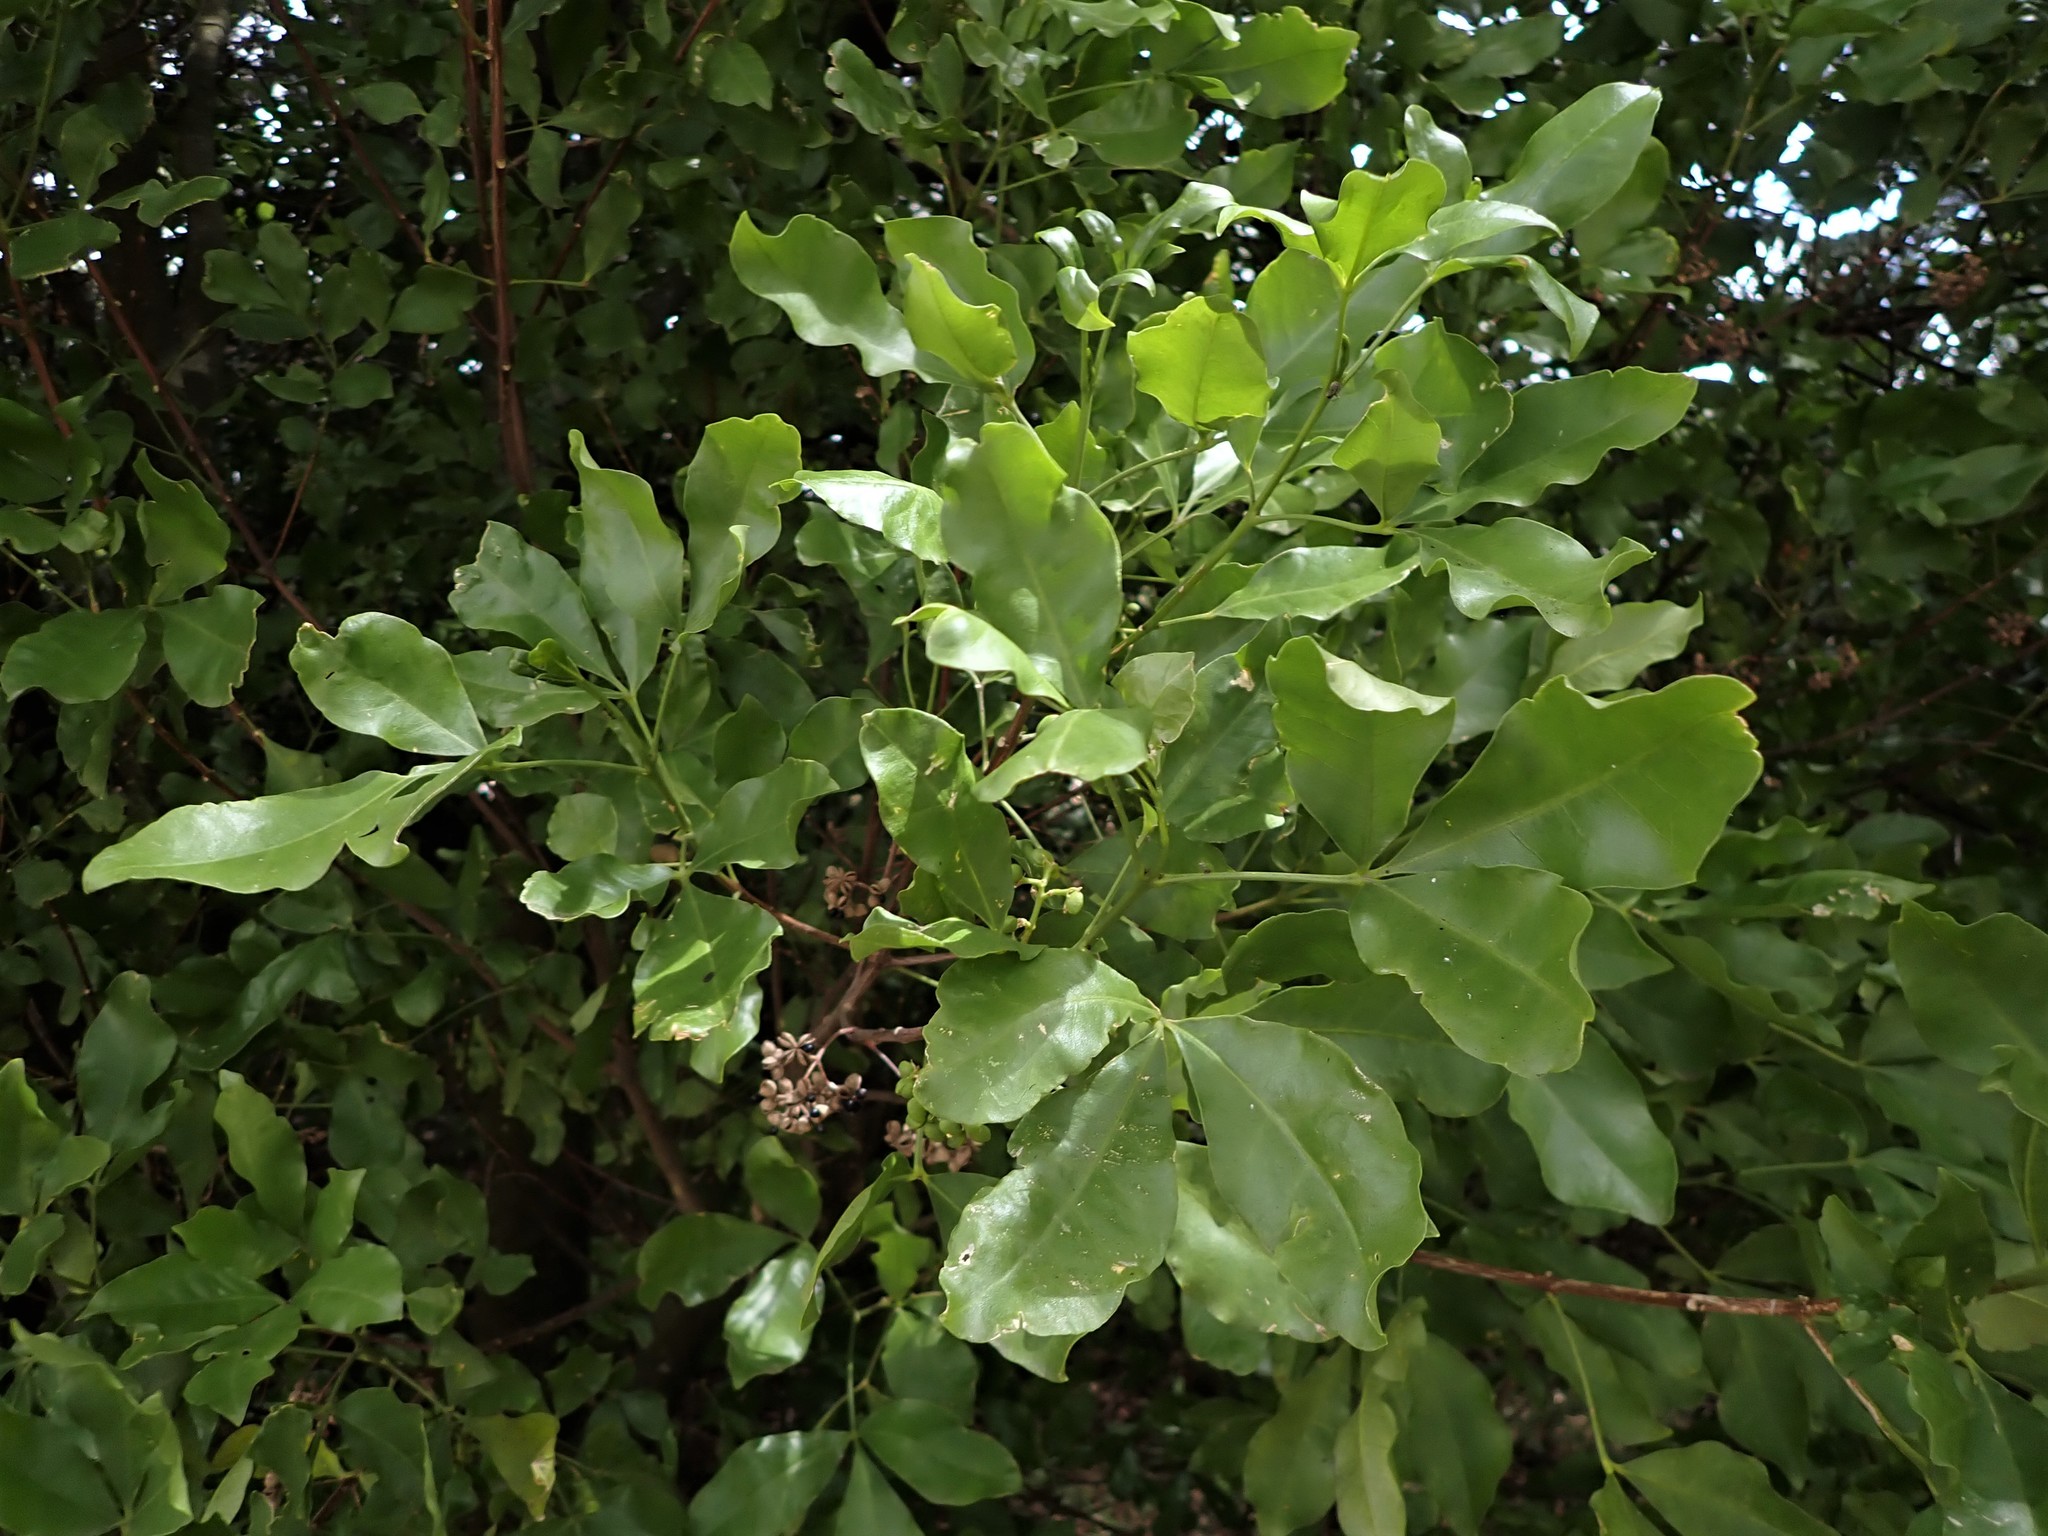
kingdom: Plantae
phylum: Tracheophyta
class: Magnoliopsida
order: Sapindales
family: Rutaceae
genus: Melicope
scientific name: Melicope ternata
